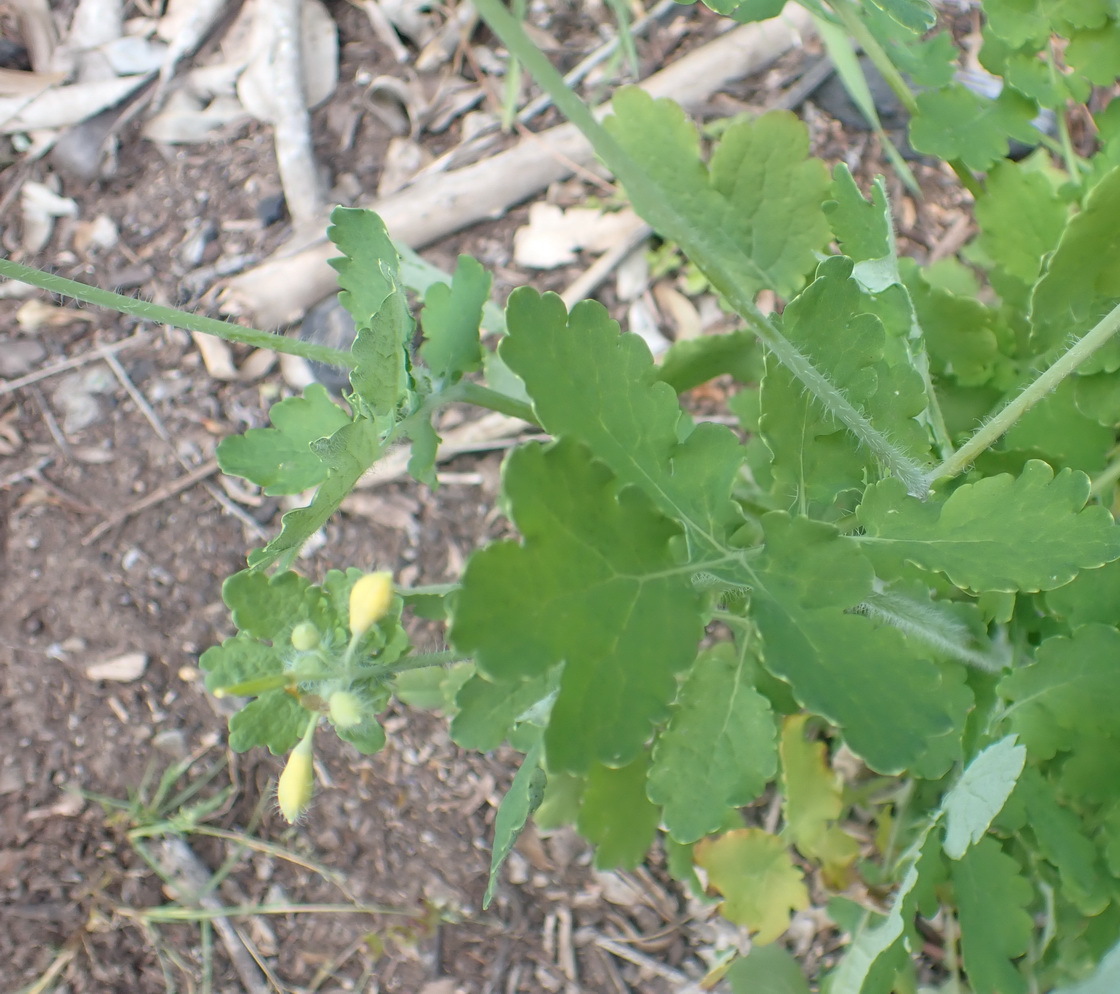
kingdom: Plantae
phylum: Tracheophyta
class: Magnoliopsida
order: Ranunculales
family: Papaveraceae
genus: Chelidonium
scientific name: Chelidonium majus
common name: Greater celandine
